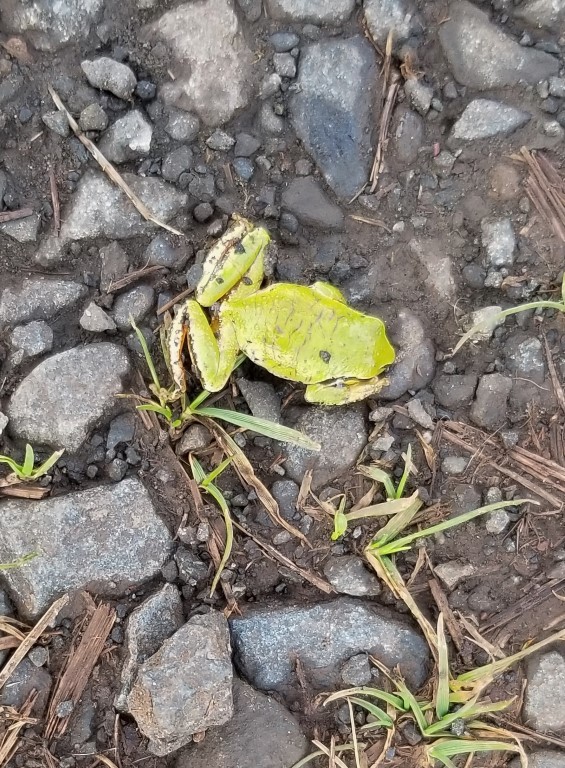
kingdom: Animalia
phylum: Chordata
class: Amphibia
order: Anura
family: Hylidae
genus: Pseudacris
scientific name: Pseudacris regilla
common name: Pacific chorus frog
